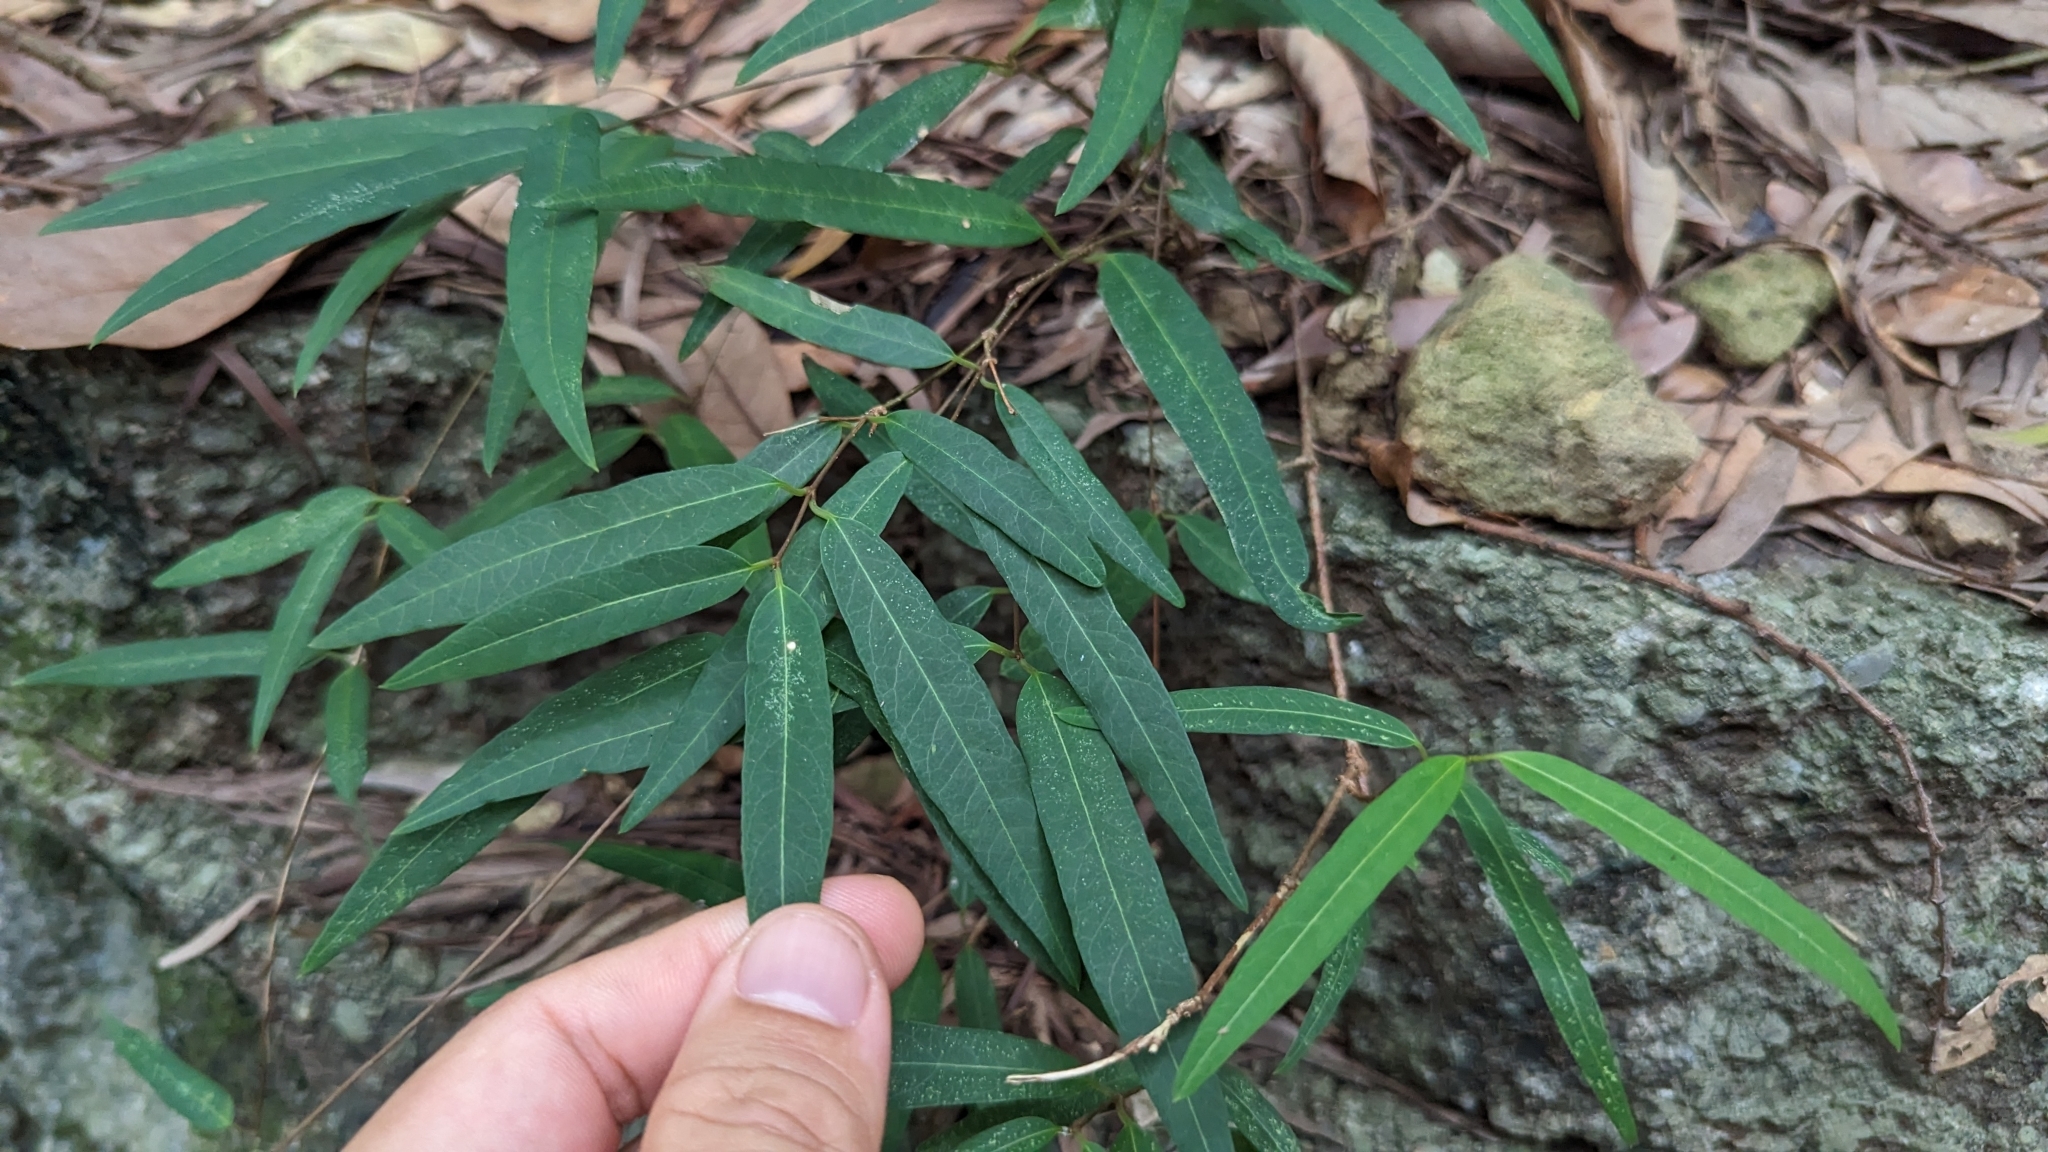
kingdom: Plantae
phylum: Tracheophyta
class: Magnoliopsida
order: Gentianales
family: Rubiaceae
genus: Damnacanthus
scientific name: Damnacanthus angustifolius
